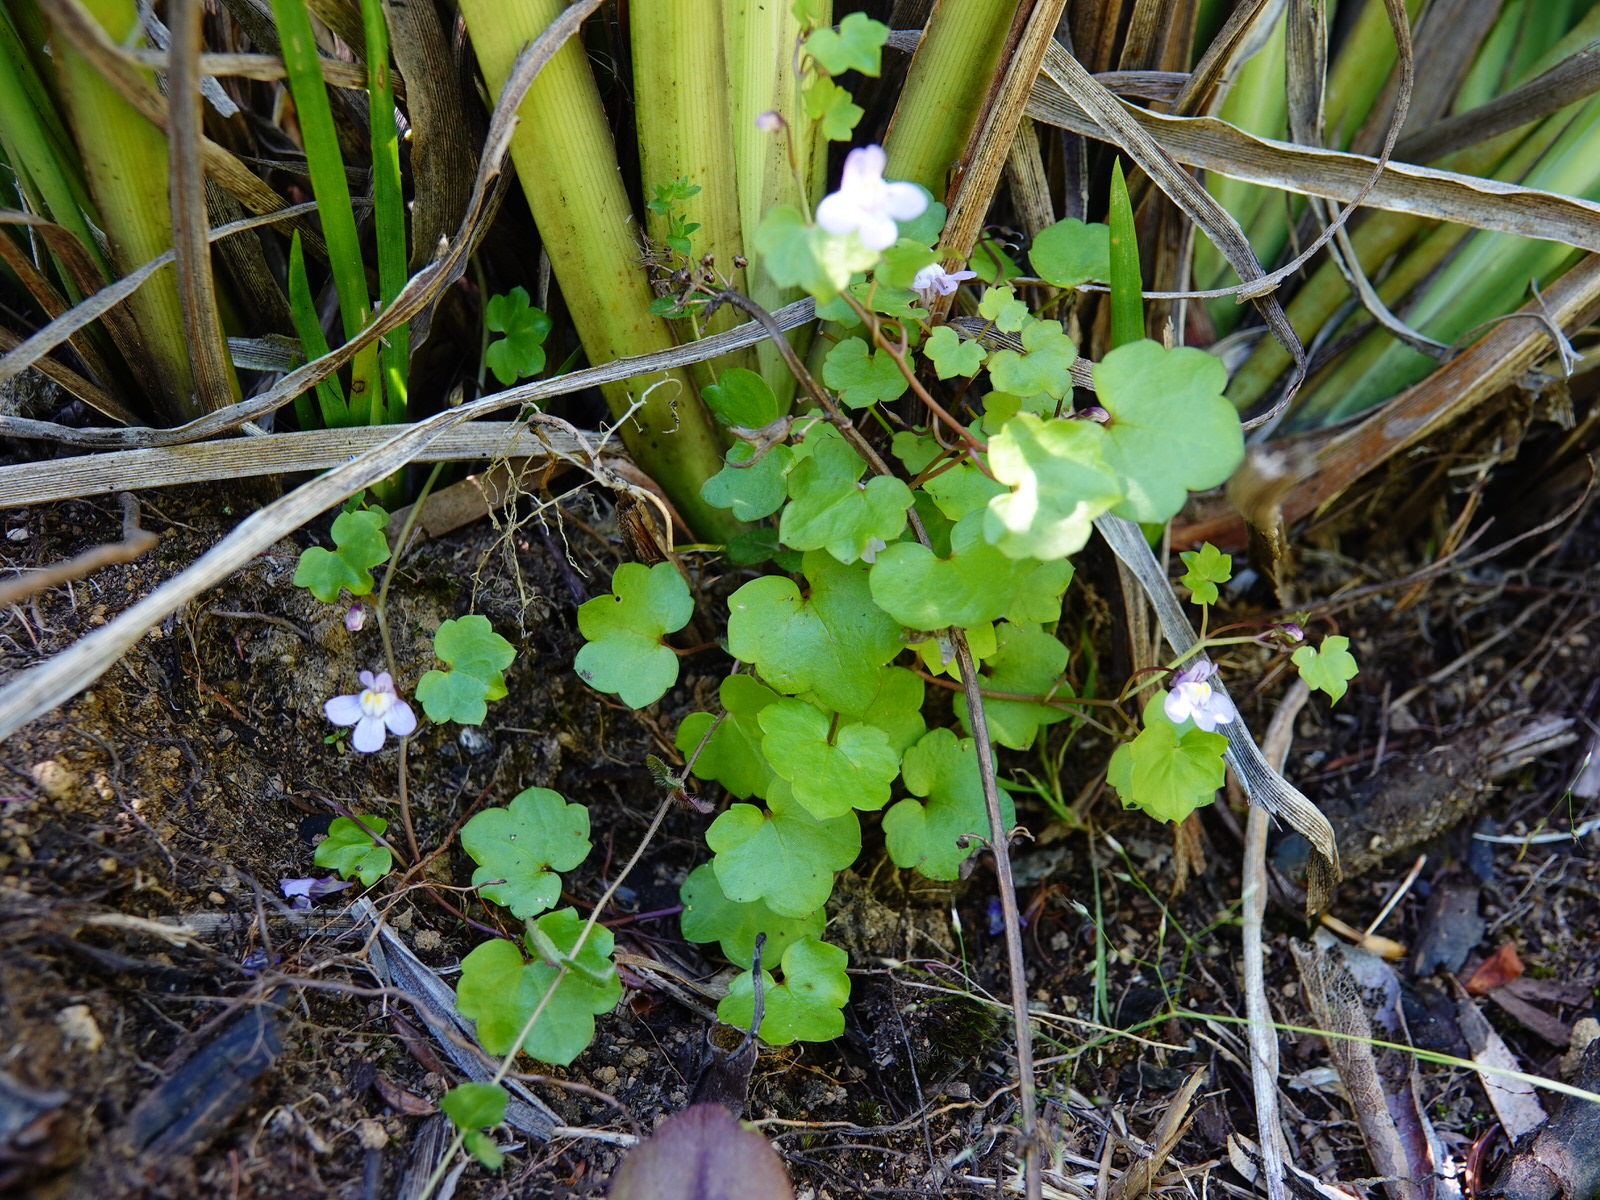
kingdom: Plantae
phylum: Tracheophyta
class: Magnoliopsida
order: Lamiales
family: Plantaginaceae
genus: Cymbalaria
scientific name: Cymbalaria muralis
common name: Ivy-leaved toadflax
